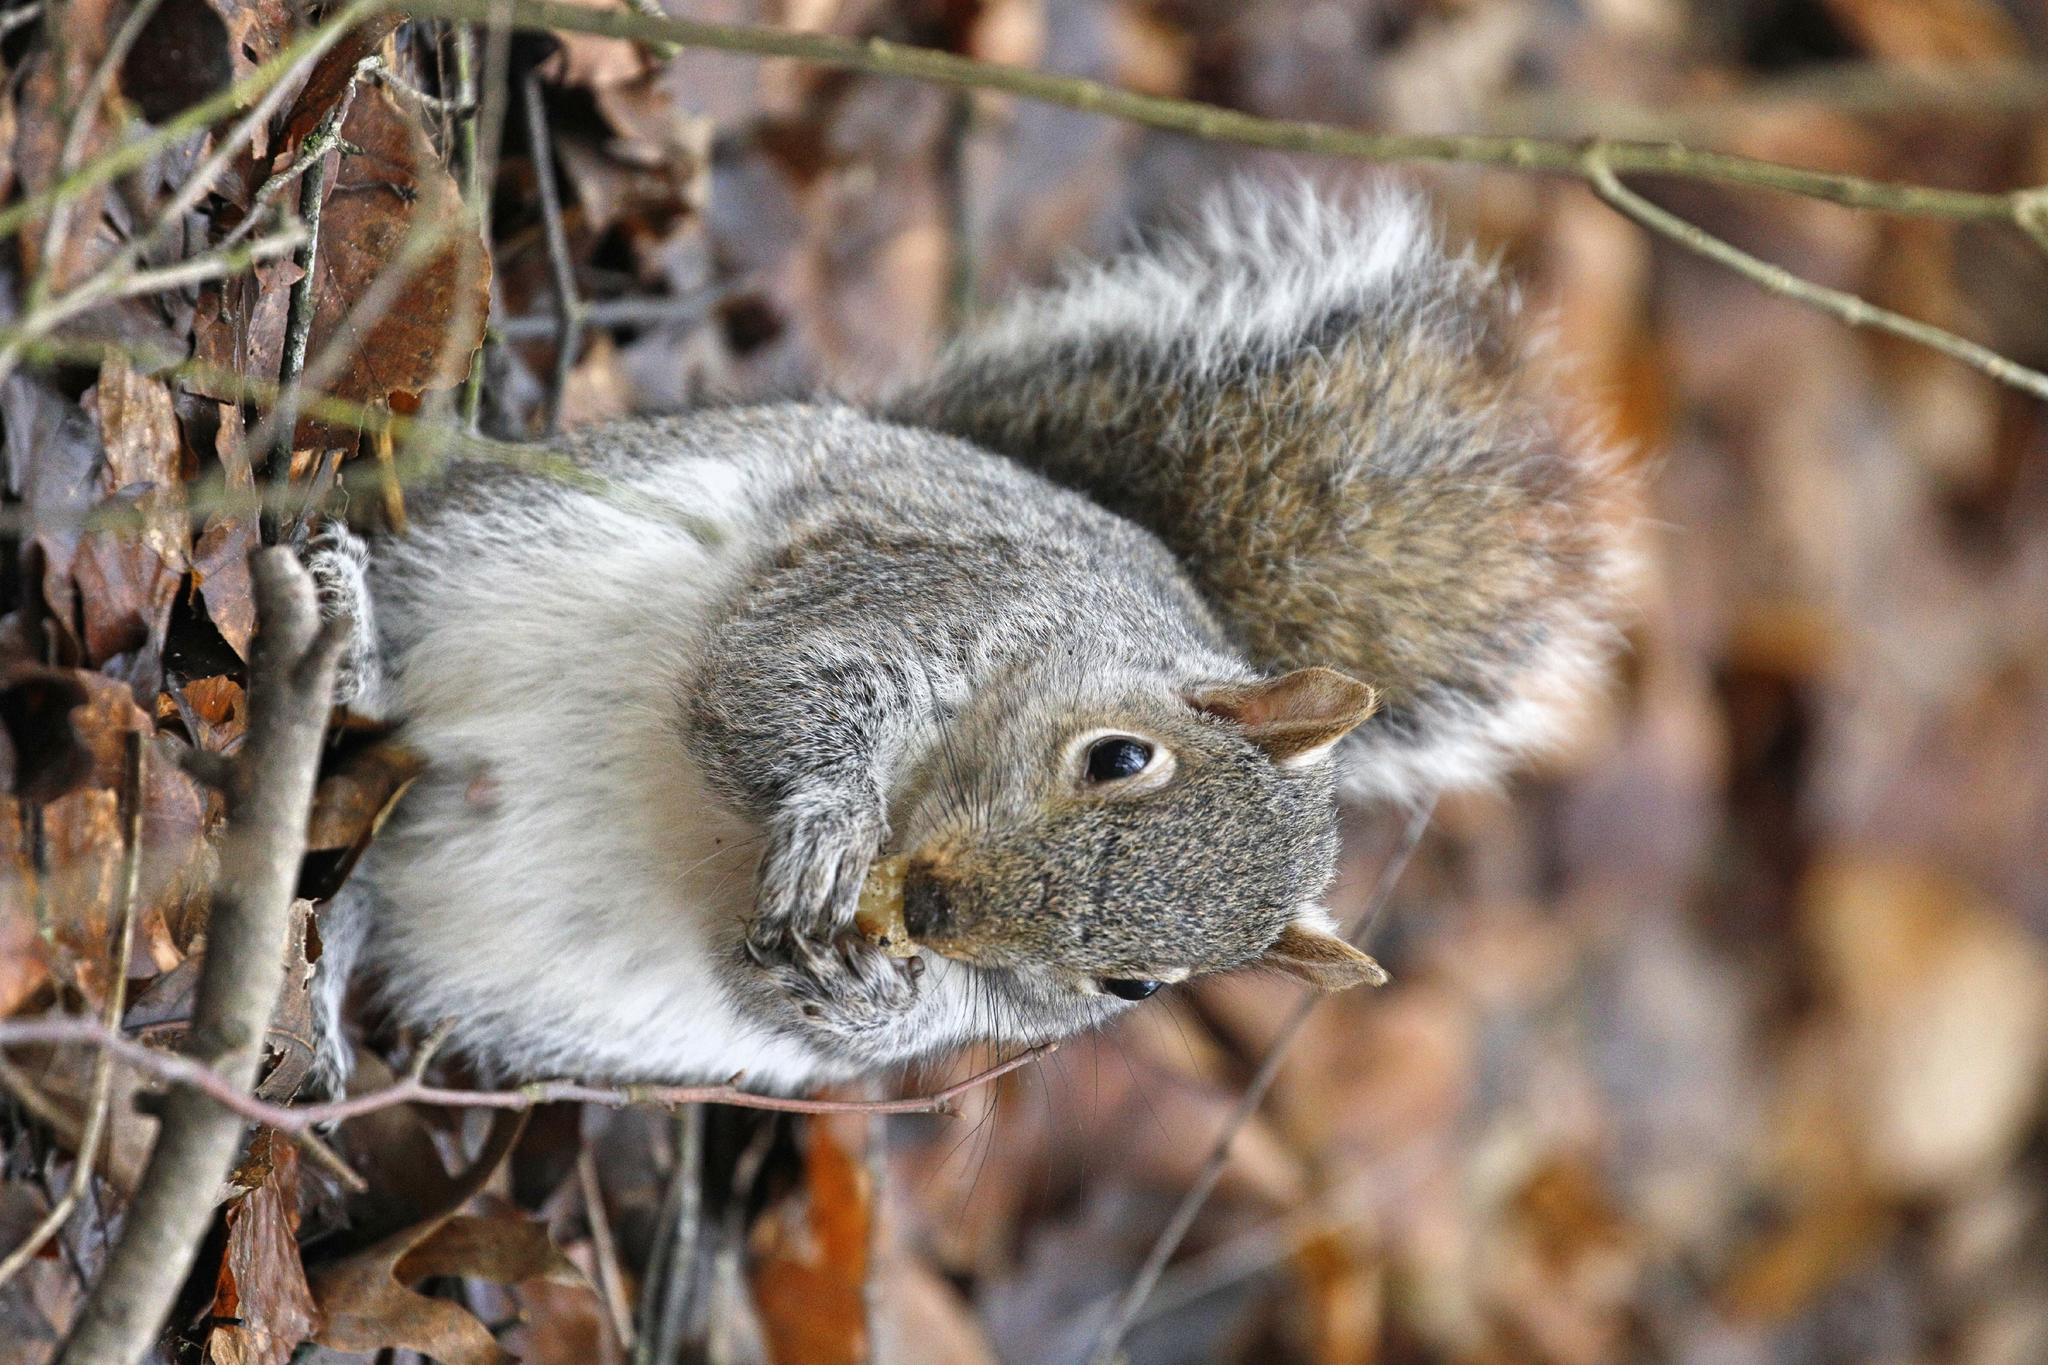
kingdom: Animalia
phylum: Chordata
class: Mammalia
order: Rodentia
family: Sciuridae
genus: Sciurus
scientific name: Sciurus carolinensis
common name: Eastern gray squirrel
